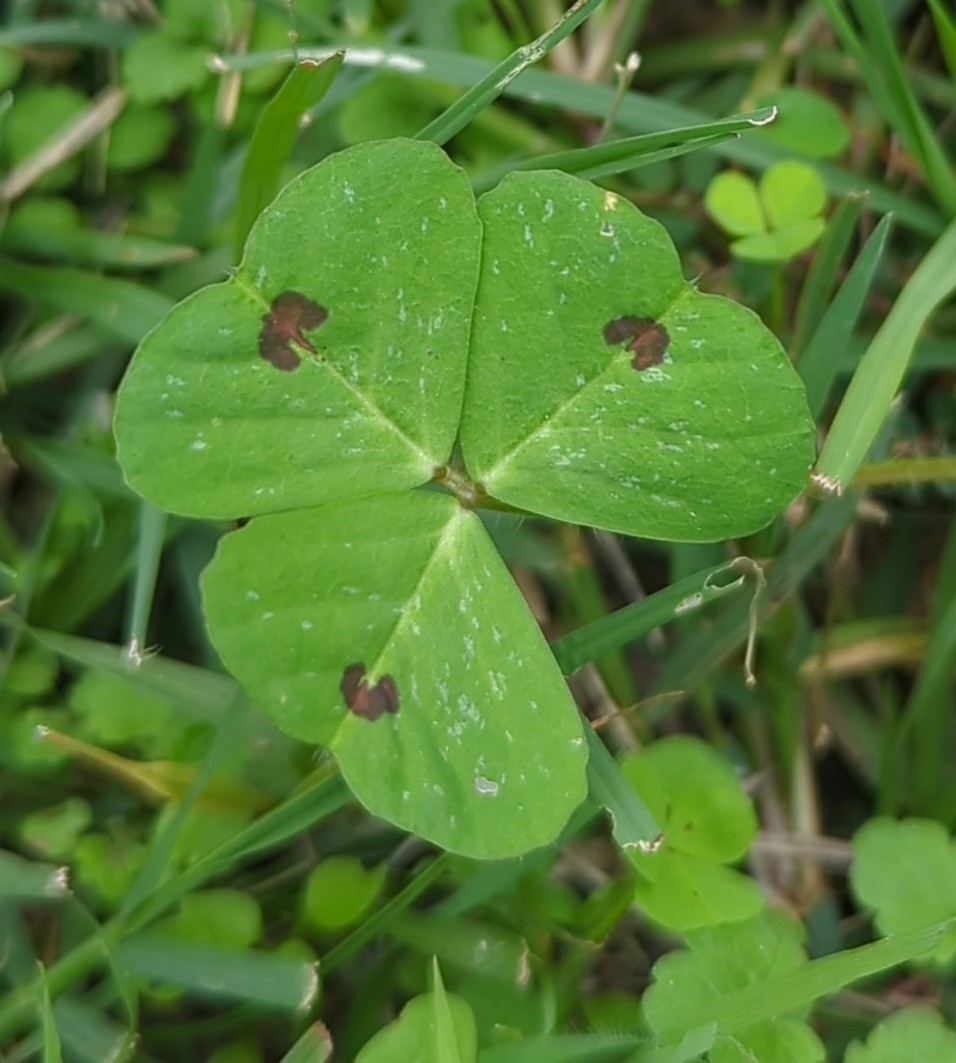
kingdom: Plantae
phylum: Tracheophyta
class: Magnoliopsida
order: Fabales
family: Fabaceae
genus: Medicago
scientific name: Medicago arabica
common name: Spotted medick
